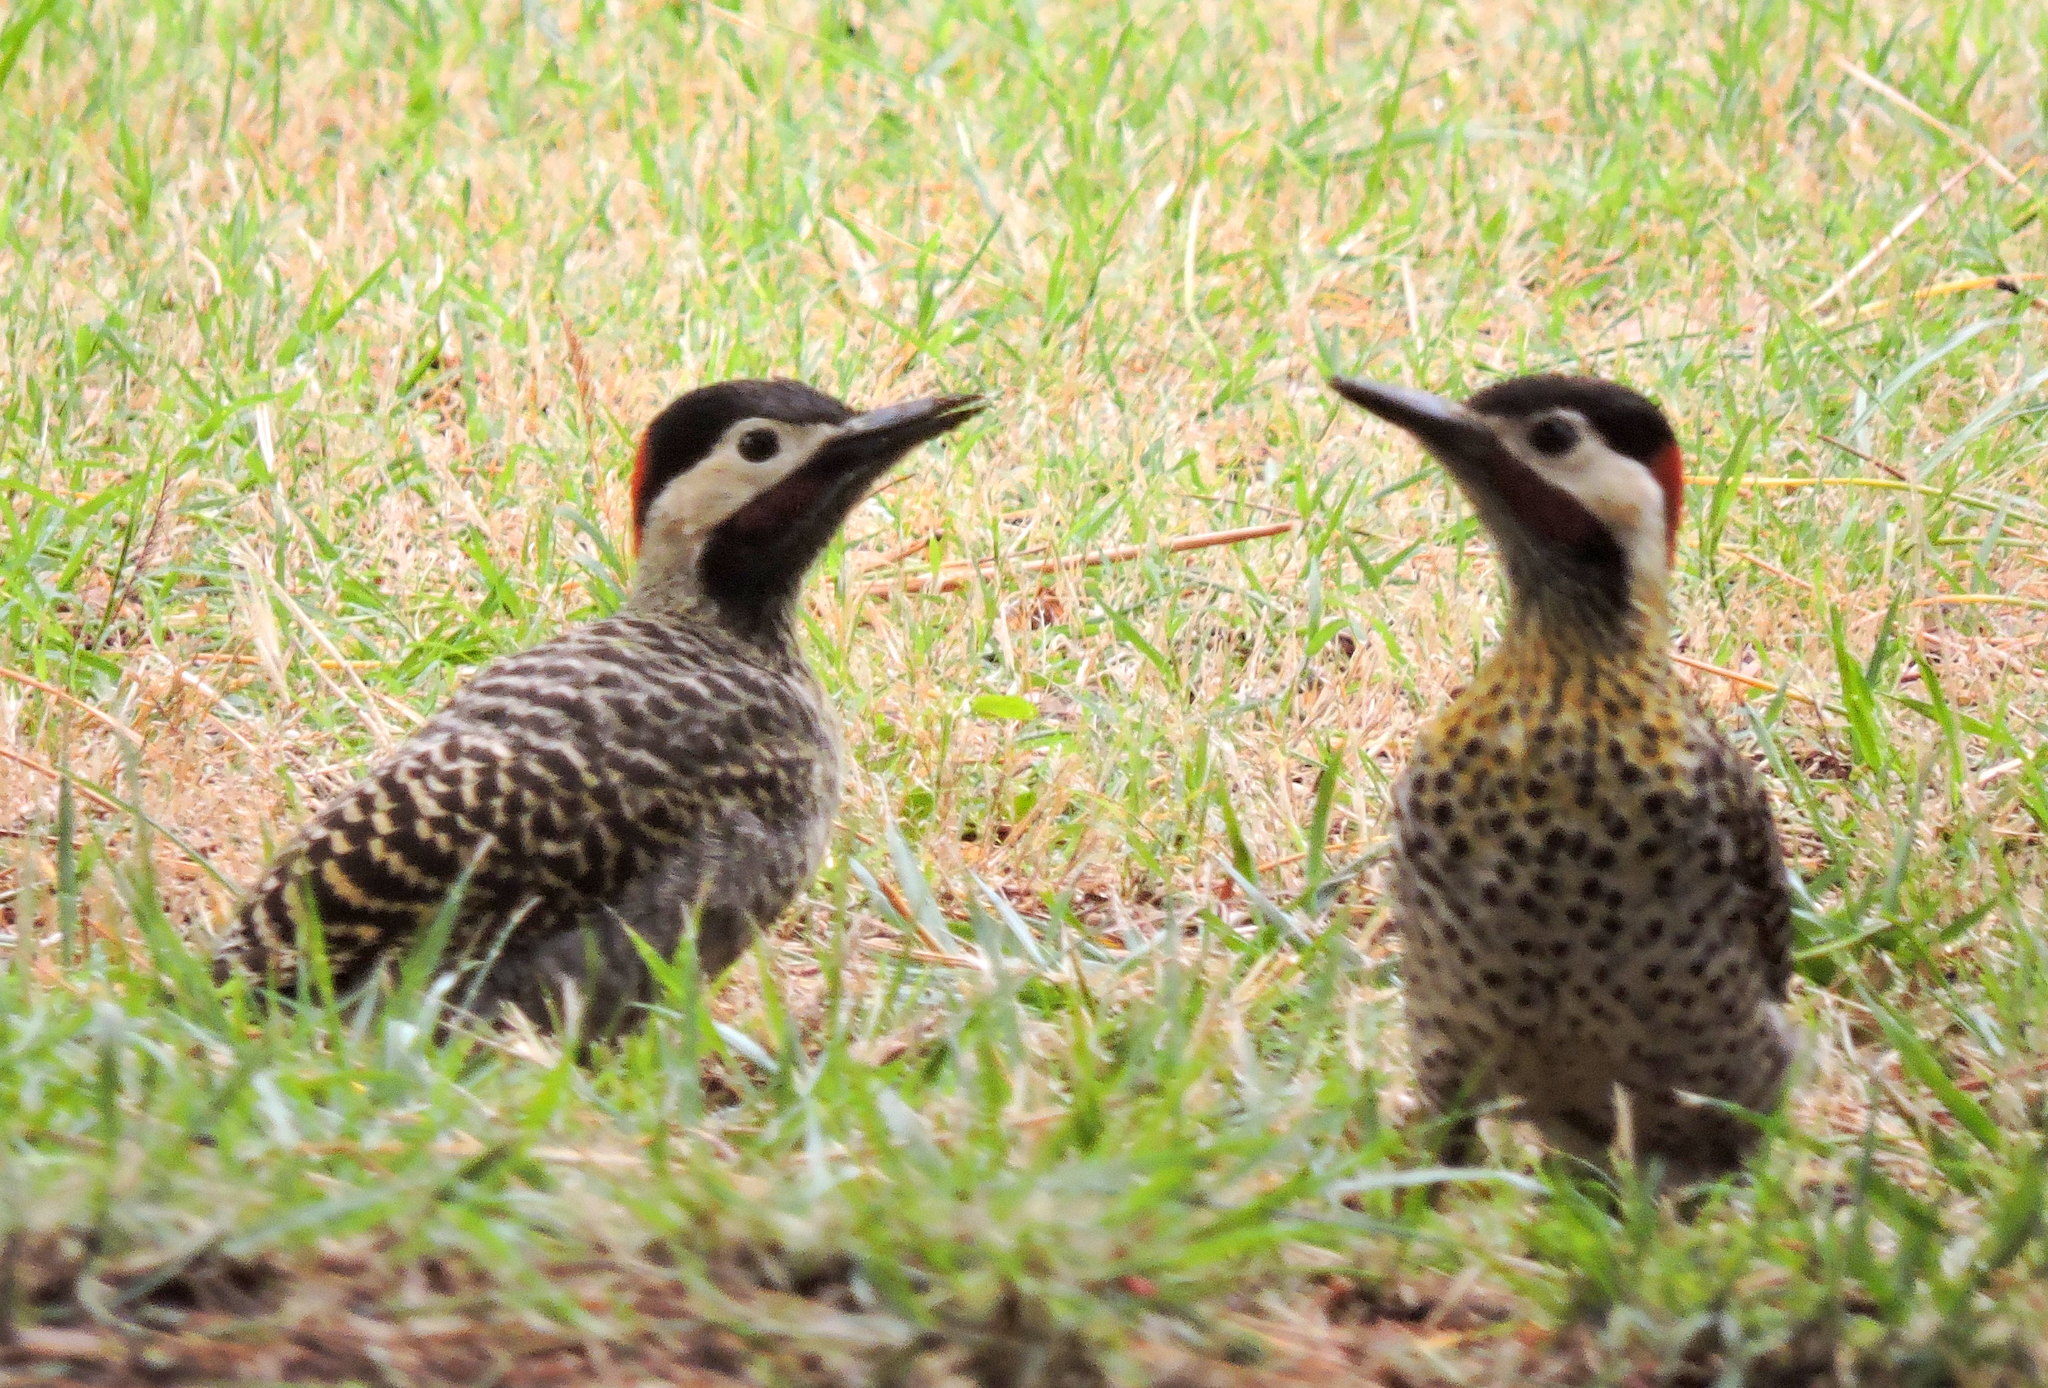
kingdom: Animalia
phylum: Chordata
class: Aves
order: Piciformes
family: Picidae
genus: Colaptes
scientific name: Colaptes melanochloros
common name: Green-barred woodpecker
